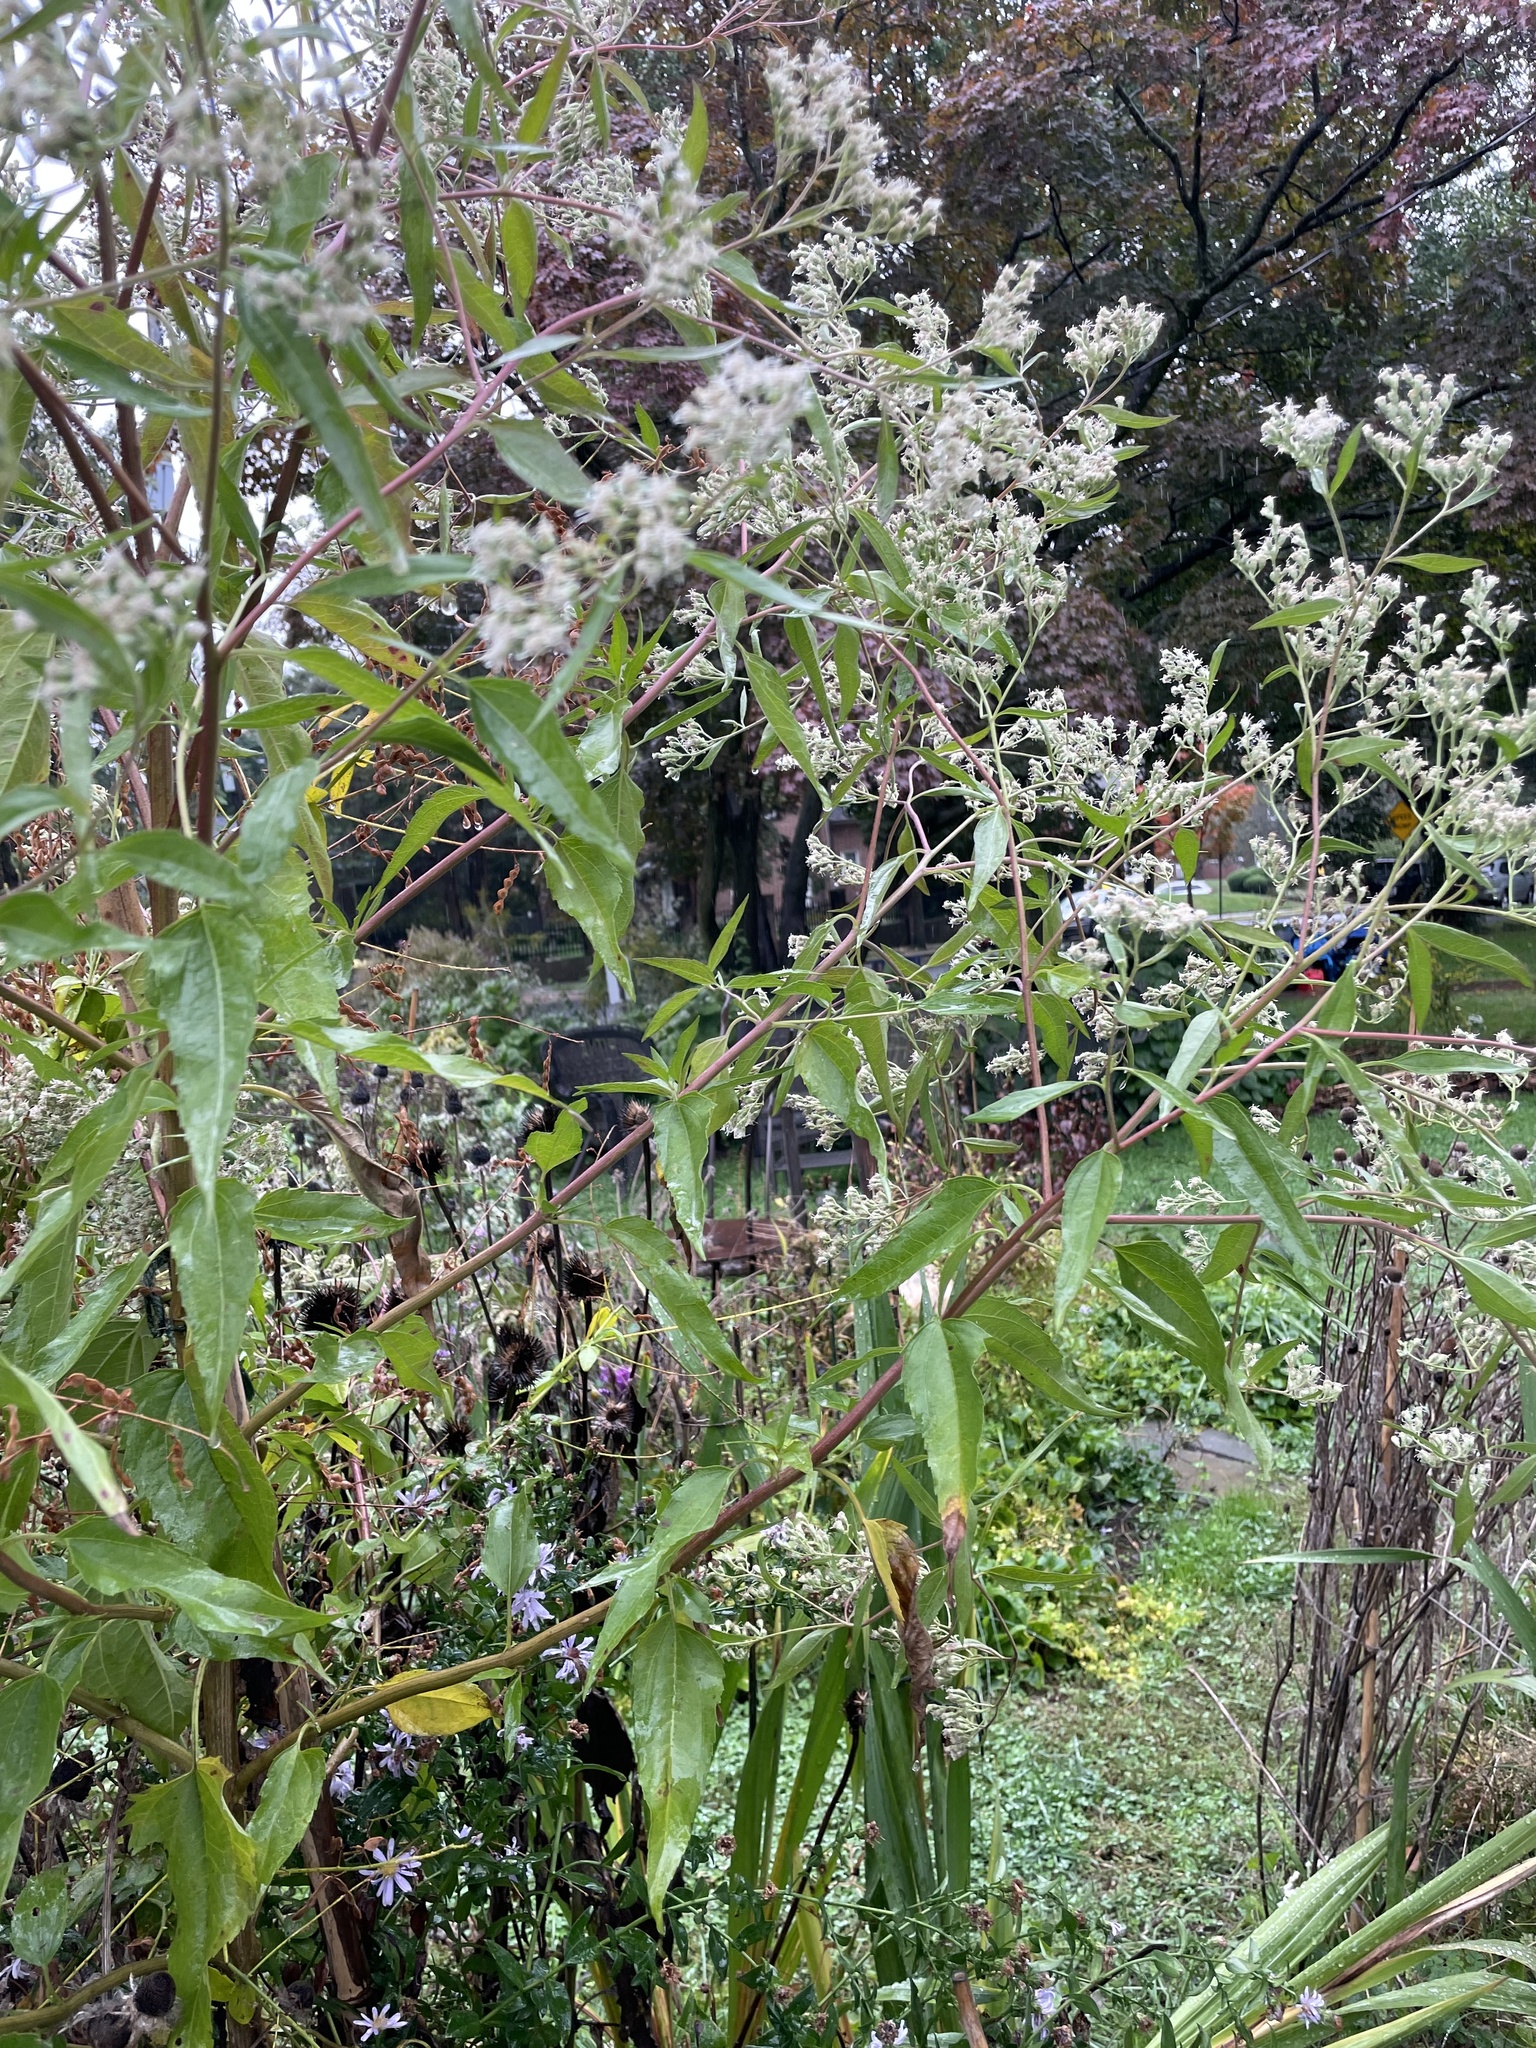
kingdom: Plantae
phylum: Tracheophyta
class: Magnoliopsida
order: Asterales
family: Asteraceae
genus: Eupatorium
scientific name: Eupatorium serotinum
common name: Late boneset
